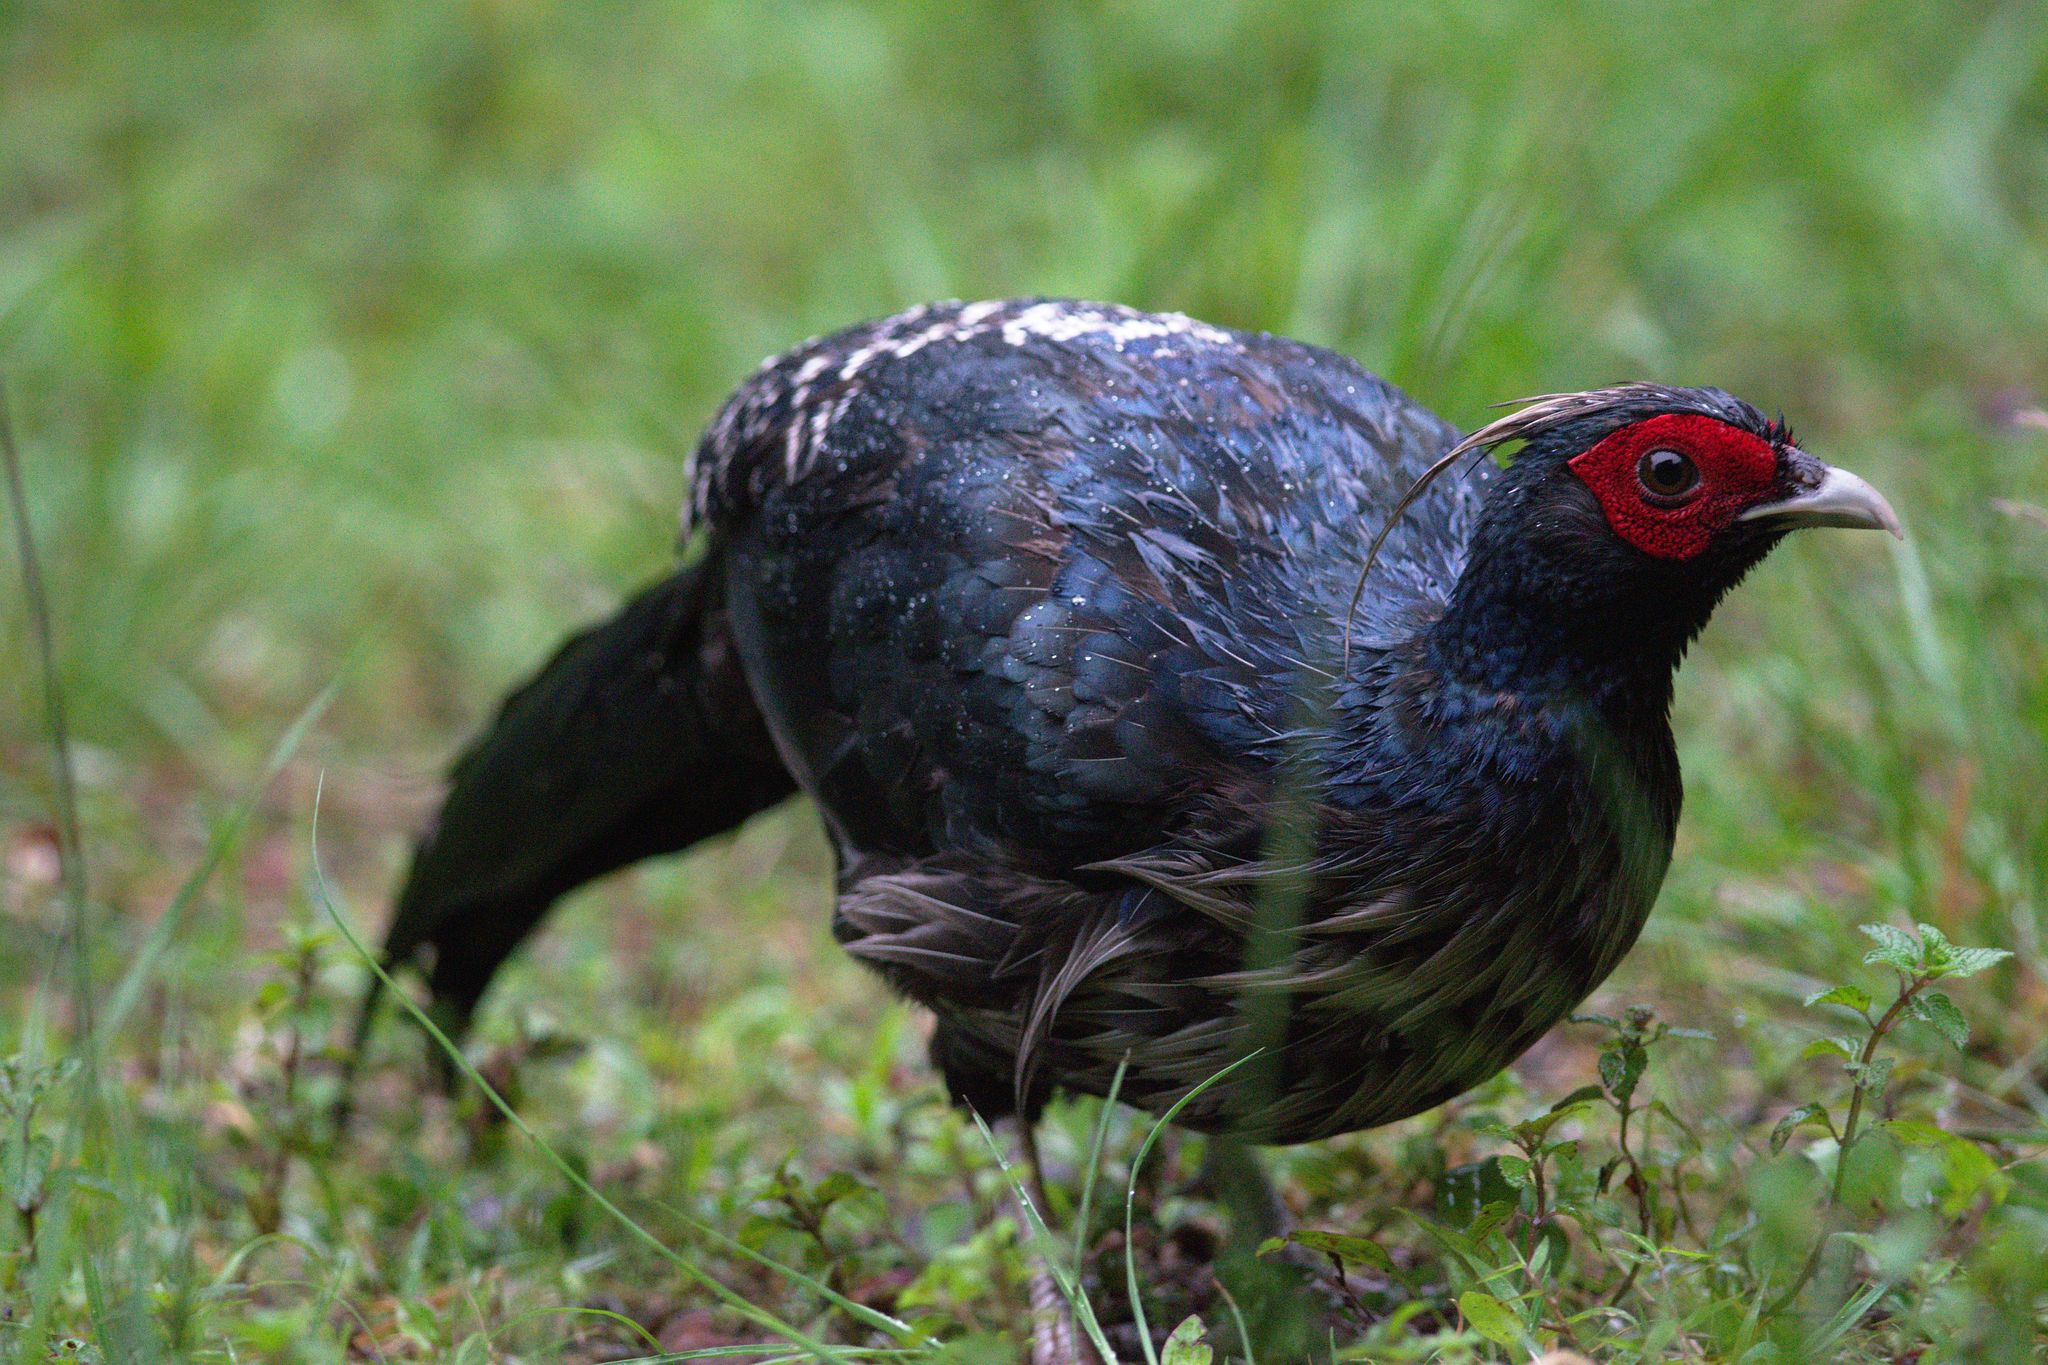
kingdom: Animalia
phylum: Chordata
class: Aves
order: Galliformes
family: Phasianidae
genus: Lophura
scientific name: Lophura leucomelanos
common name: Kalij pheasant
